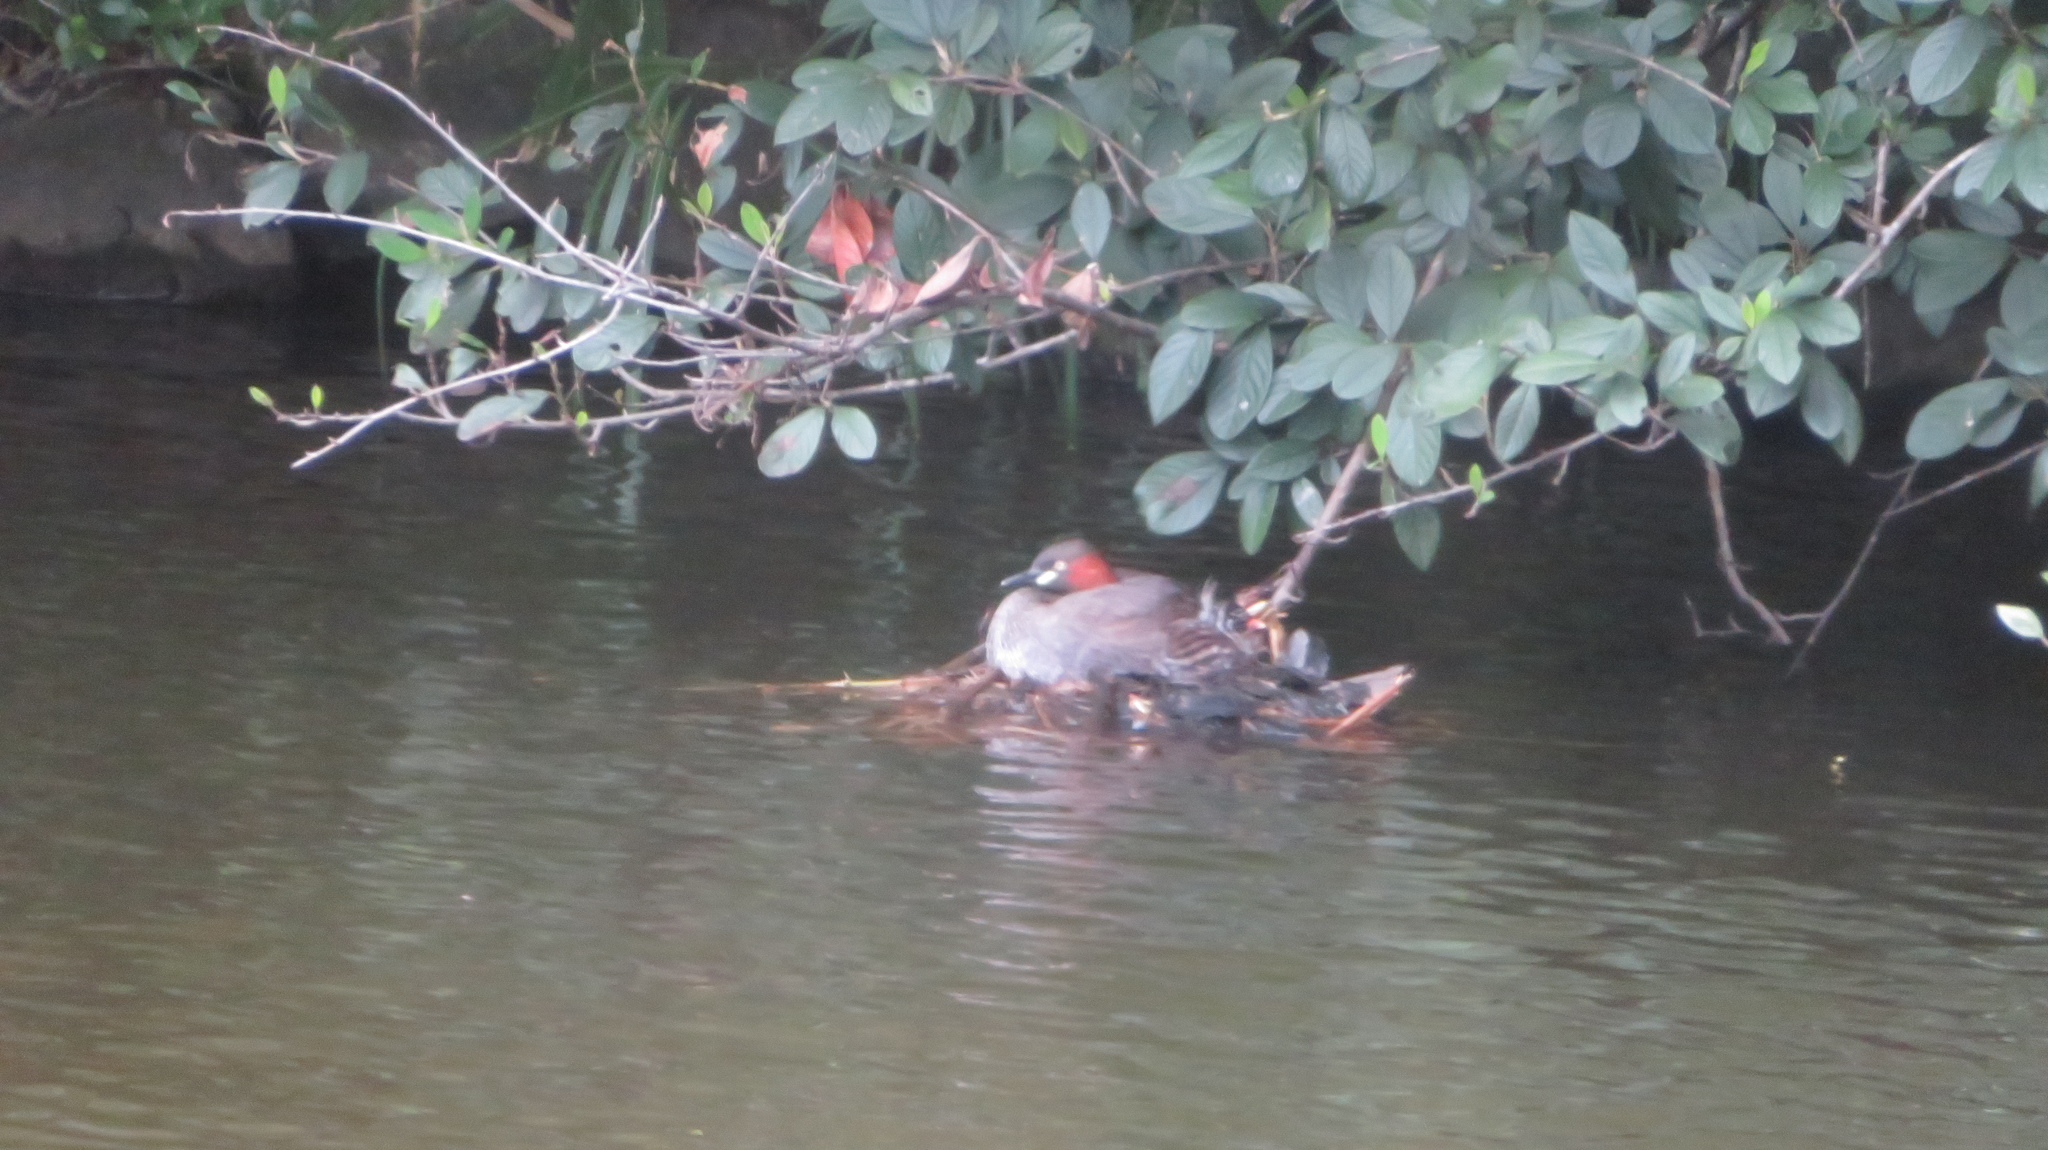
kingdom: Animalia
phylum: Chordata
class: Aves
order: Podicipediformes
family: Podicipedidae
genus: Tachybaptus
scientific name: Tachybaptus ruficollis
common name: Little grebe
